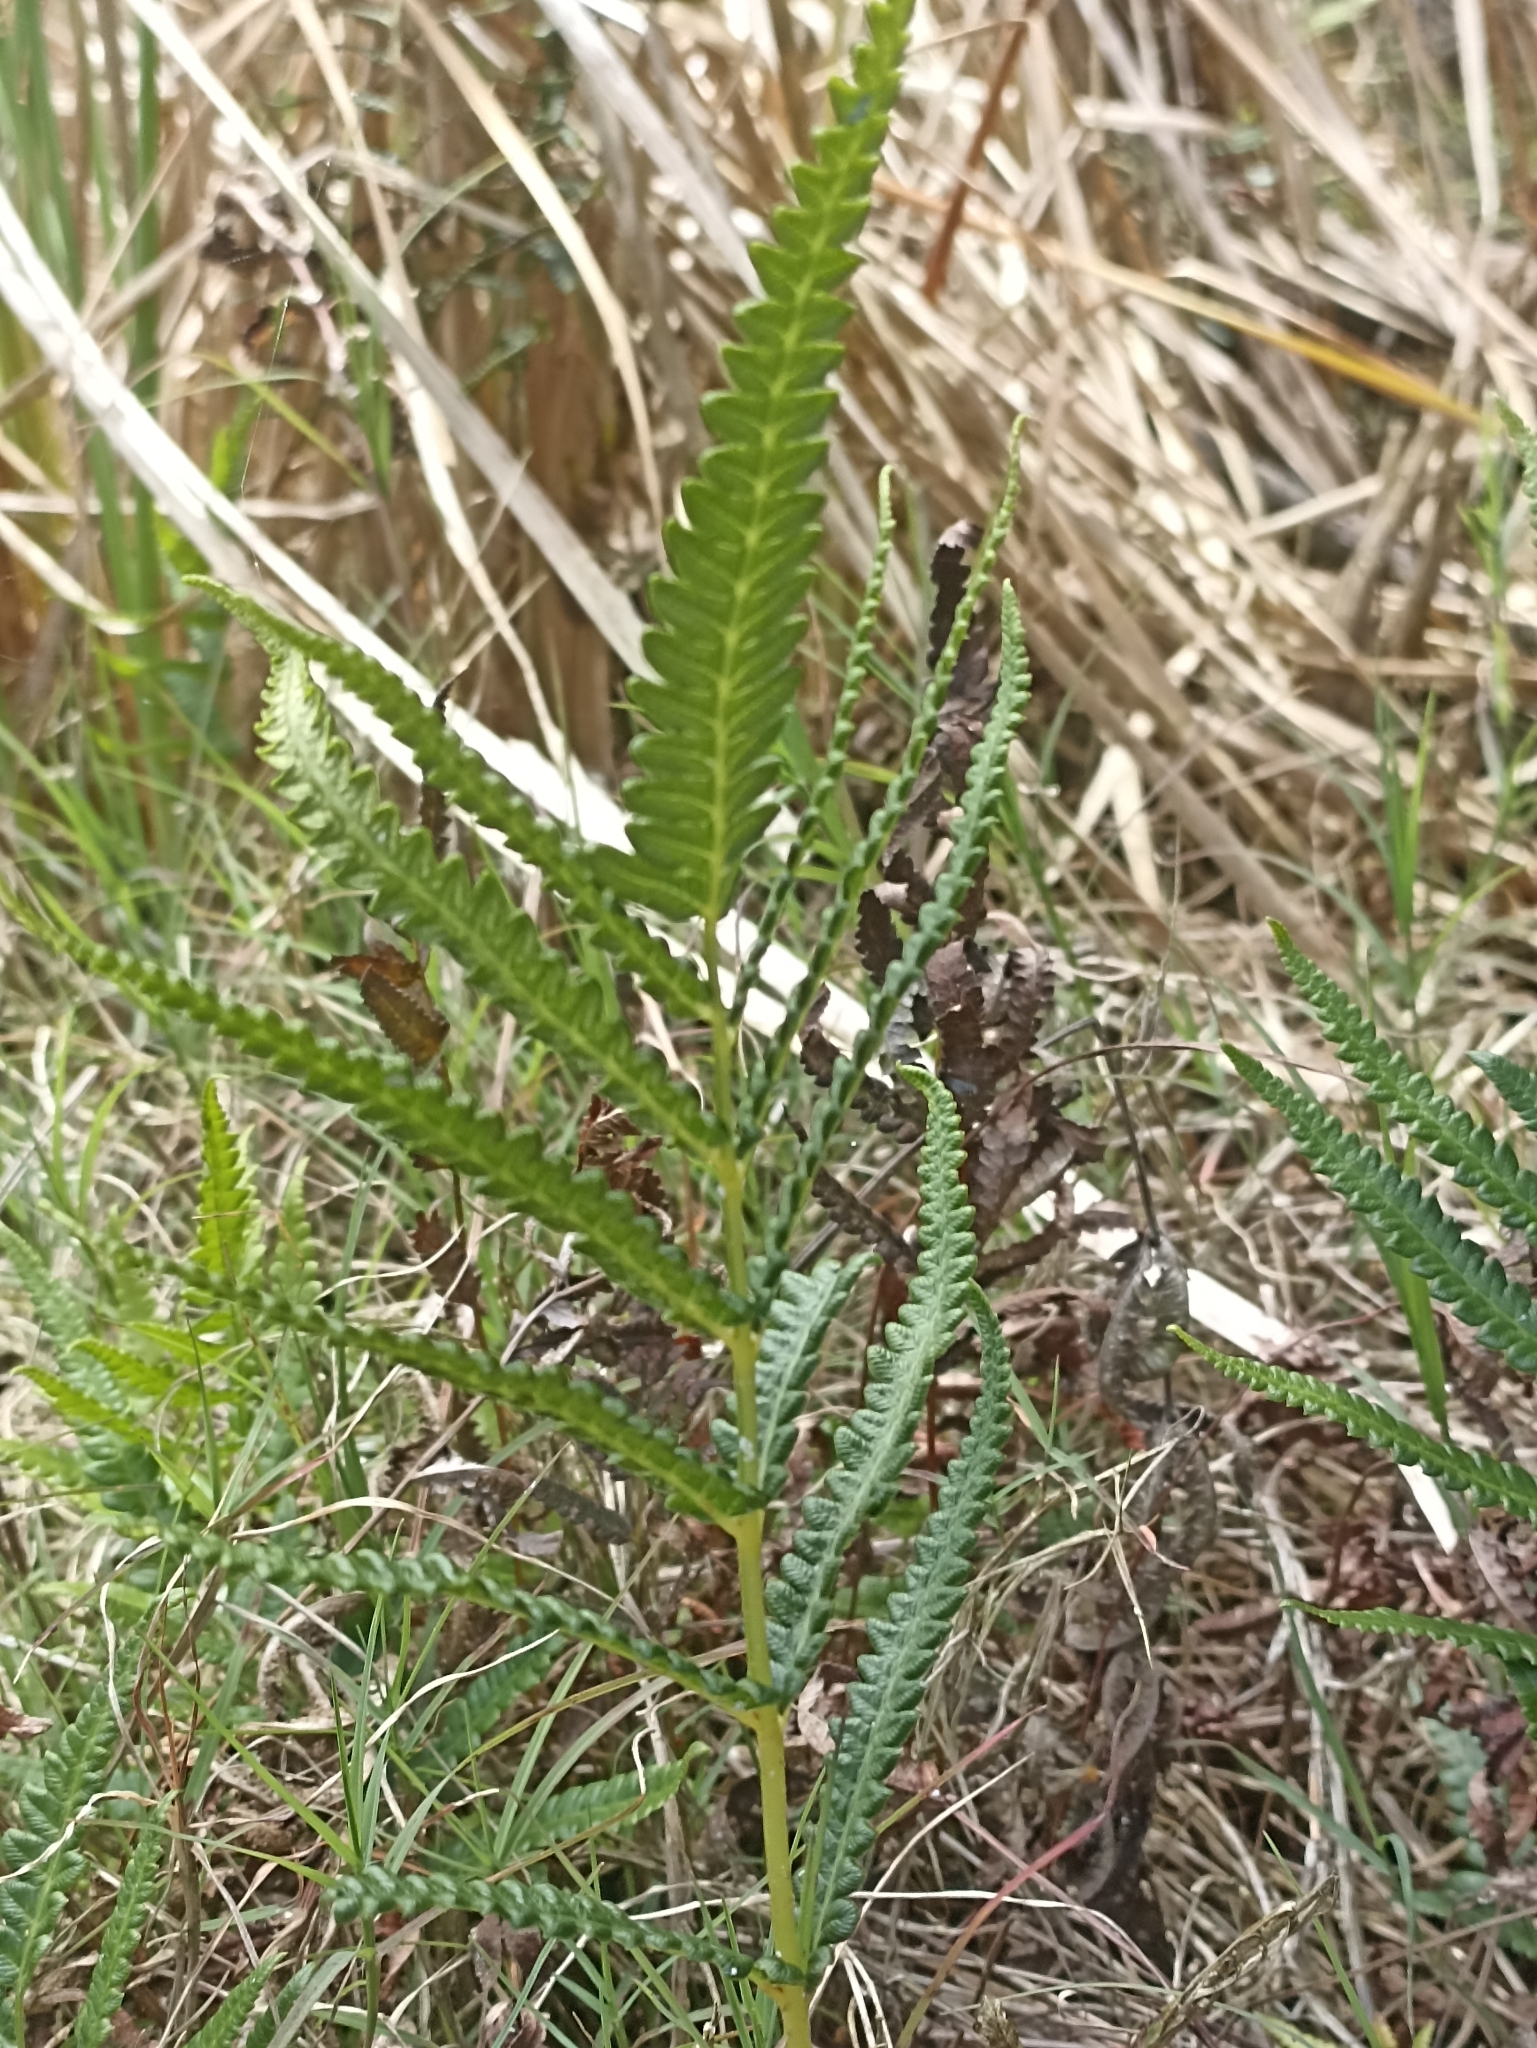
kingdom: Plantae
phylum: Tracheophyta
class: Polypodiopsida
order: Polypodiales
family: Thelypteridaceae
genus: Cyclosorus
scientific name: Cyclosorus interruptus
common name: Neke fern
